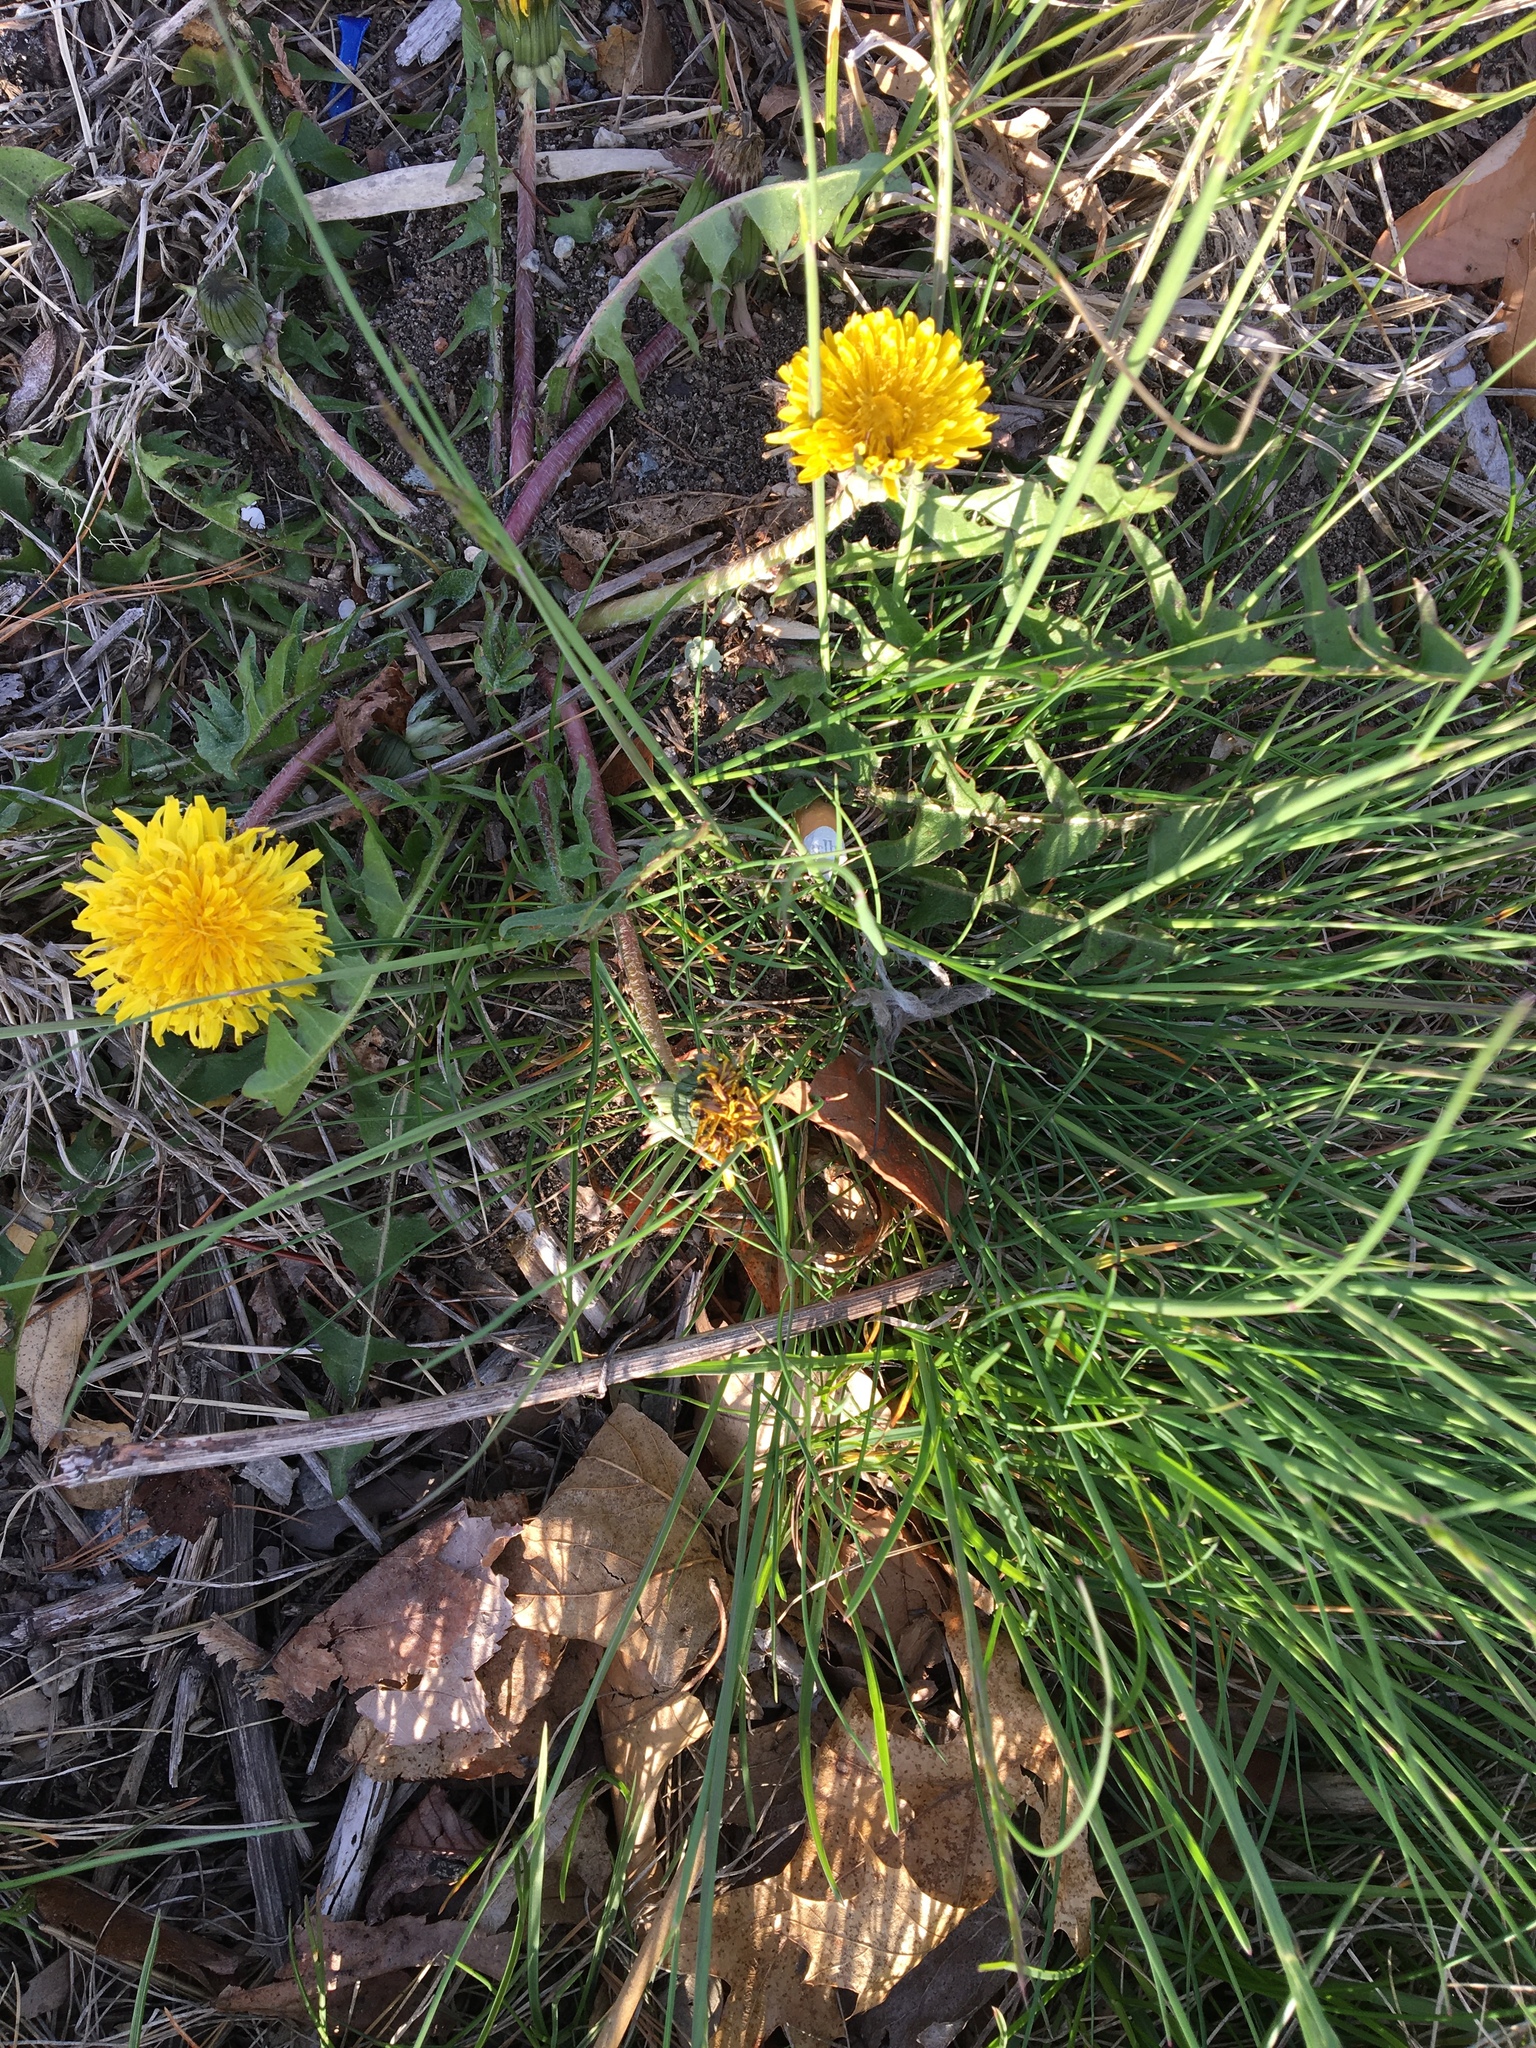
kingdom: Plantae
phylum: Tracheophyta
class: Magnoliopsida
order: Asterales
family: Asteraceae
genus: Taraxacum
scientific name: Taraxacum officinale
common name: Common dandelion
